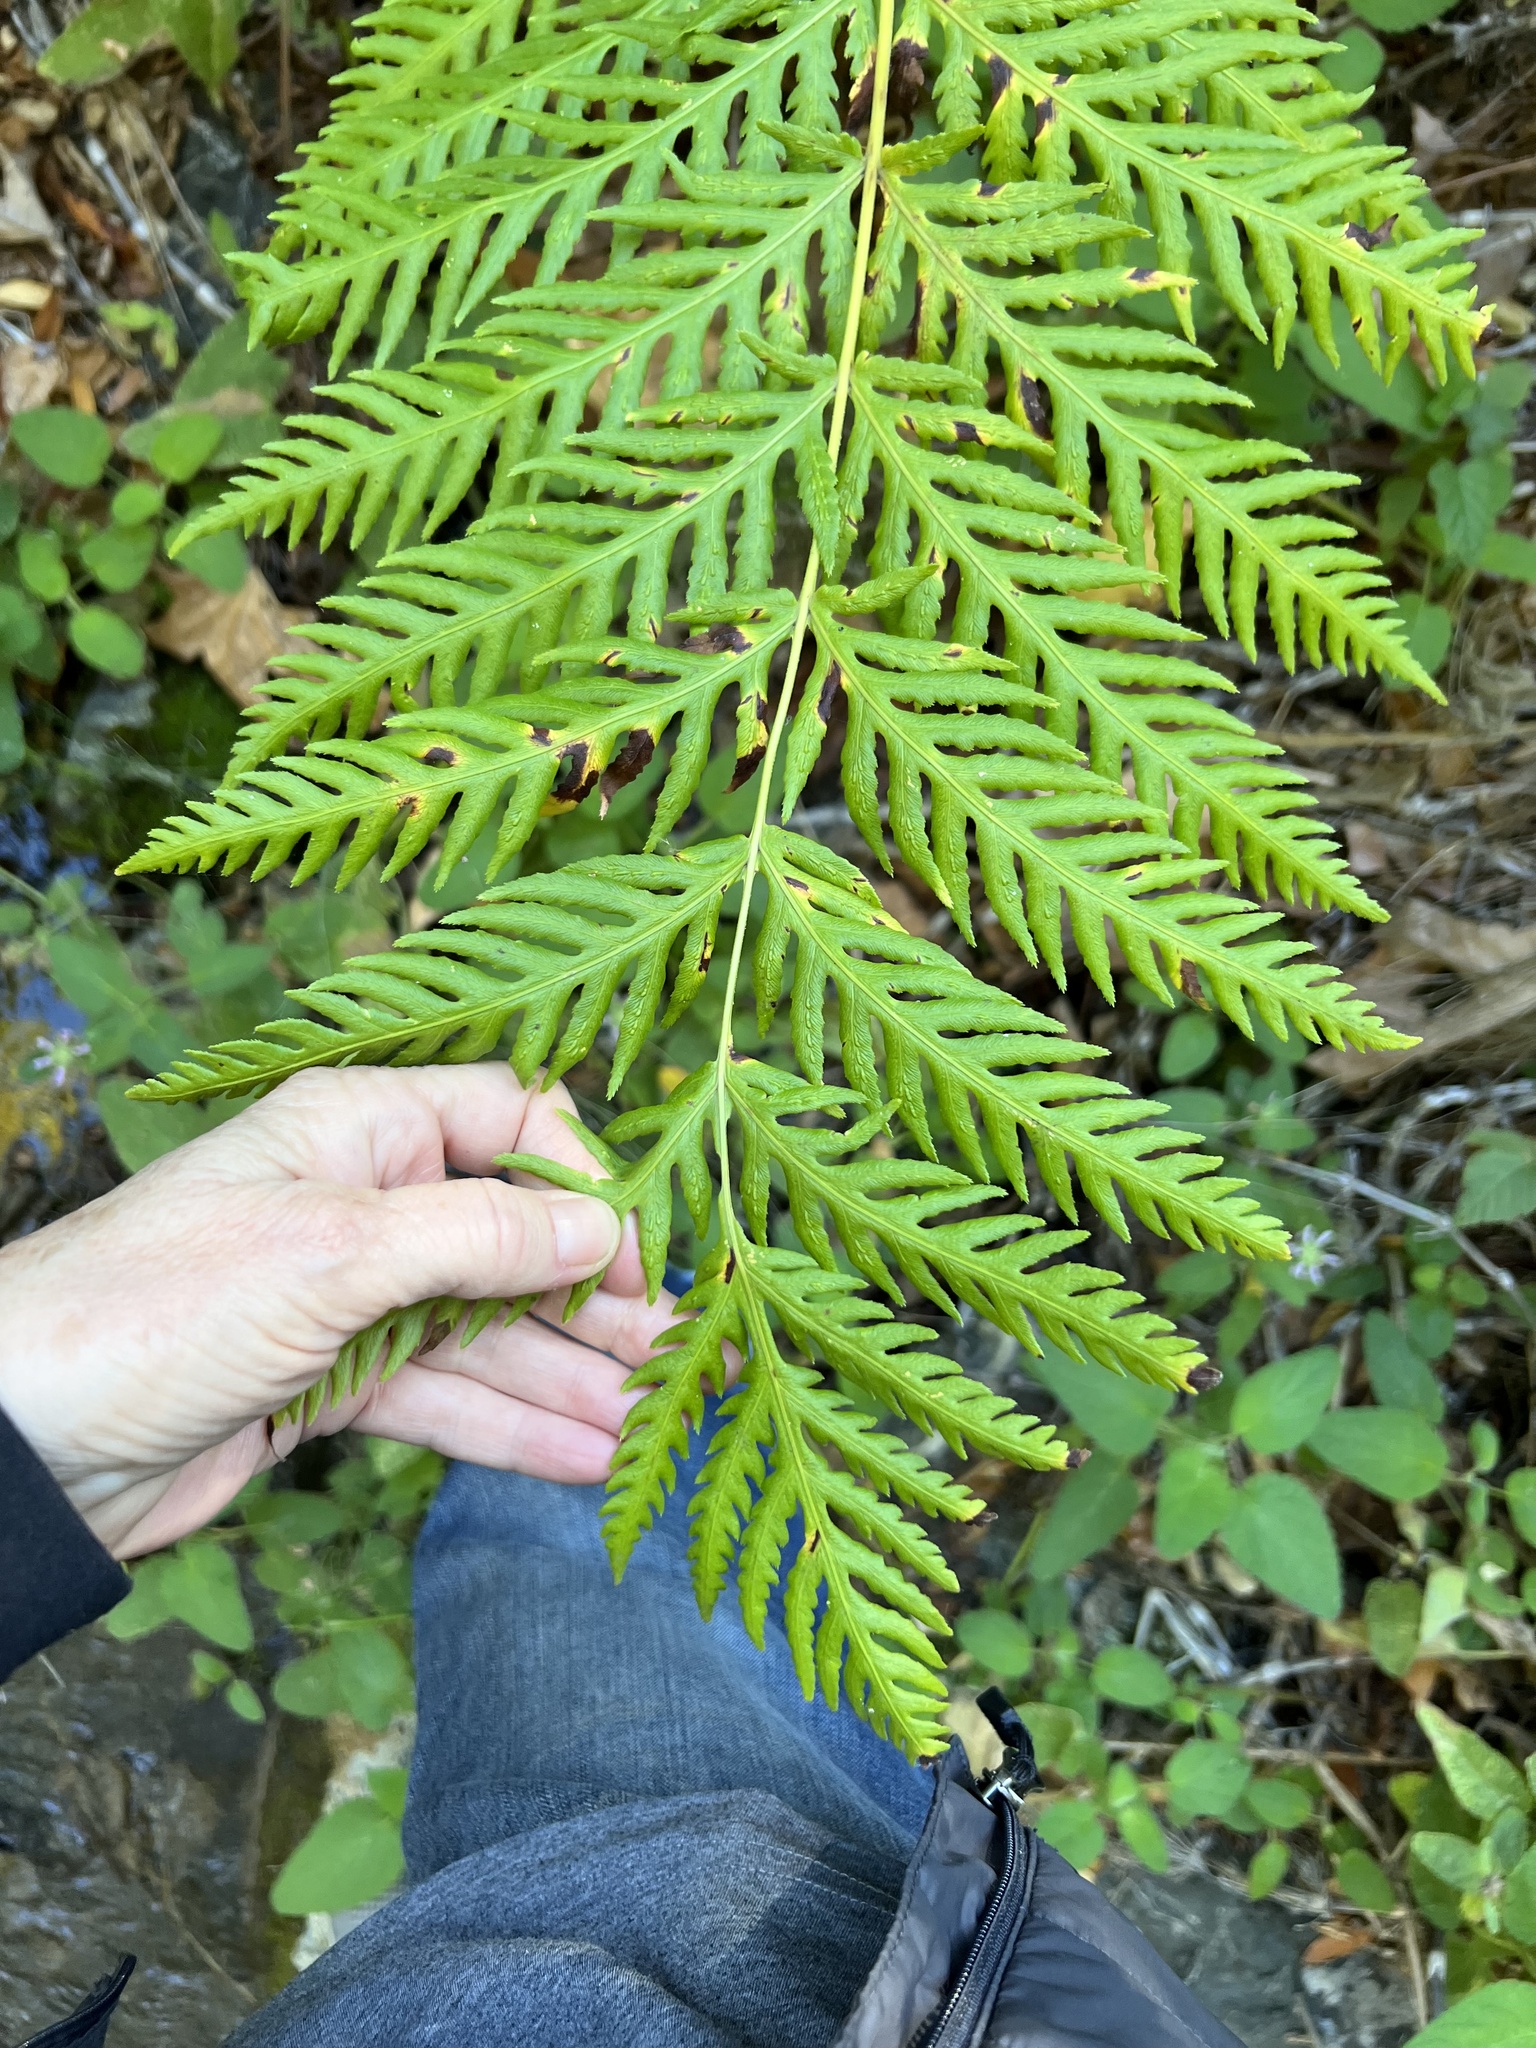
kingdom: Plantae
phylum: Tracheophyta
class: Polypodiopsida
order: Polypodiales
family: Blechnaceae
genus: Woodwardia
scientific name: Woodwardia fimbriata
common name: Giant chain fern
